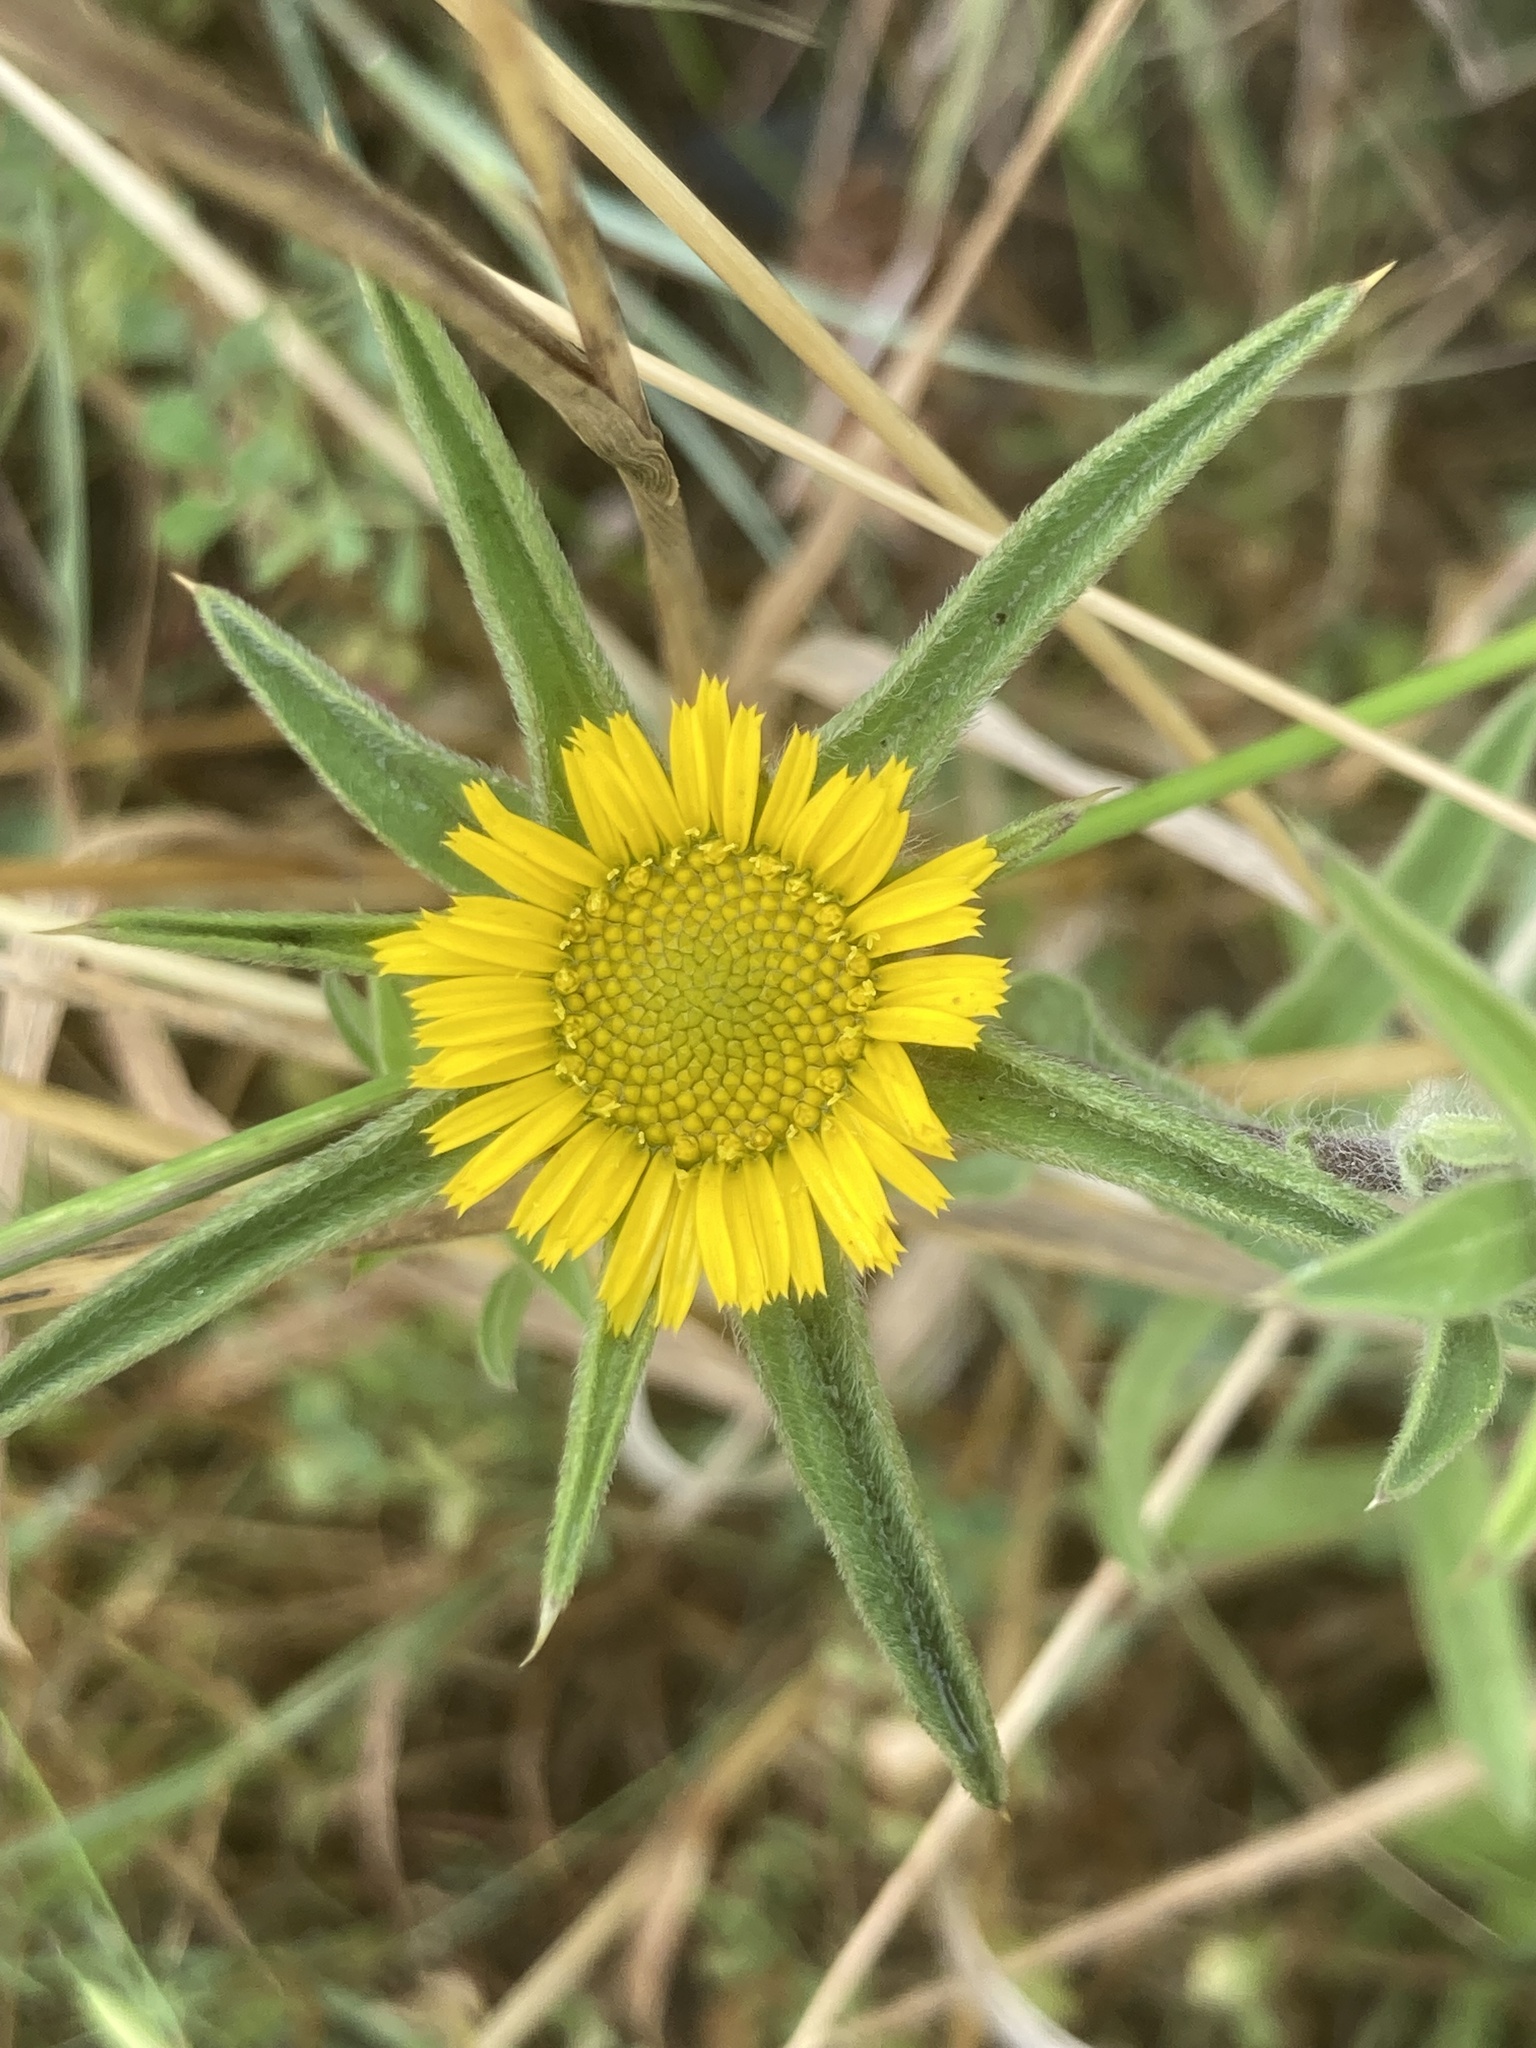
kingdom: Plantae
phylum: Tracheophyta
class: Magnoliopsida
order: Asterales
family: Asteraceae
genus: Pallenis
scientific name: Pallenis spinosa
